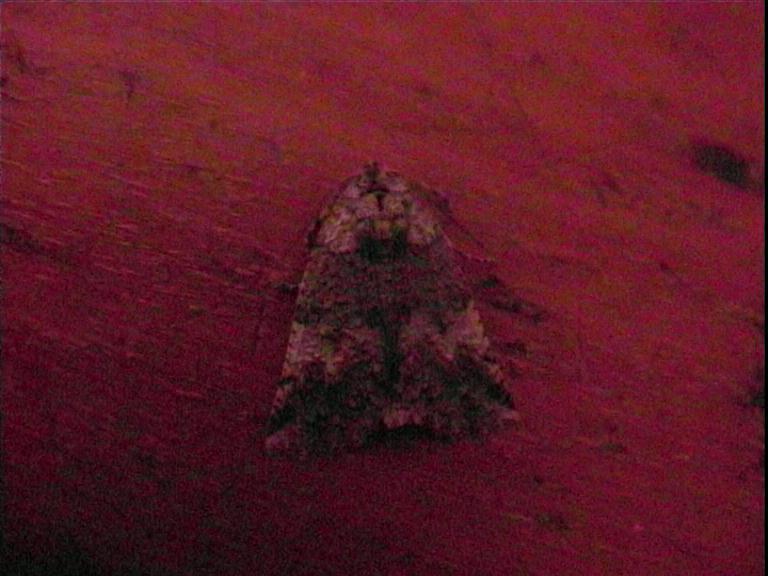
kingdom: Animalia
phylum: Arthropoda
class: Insecta
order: Lepidoptera
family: Geometridae
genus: Declana
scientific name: Declana floccosa
